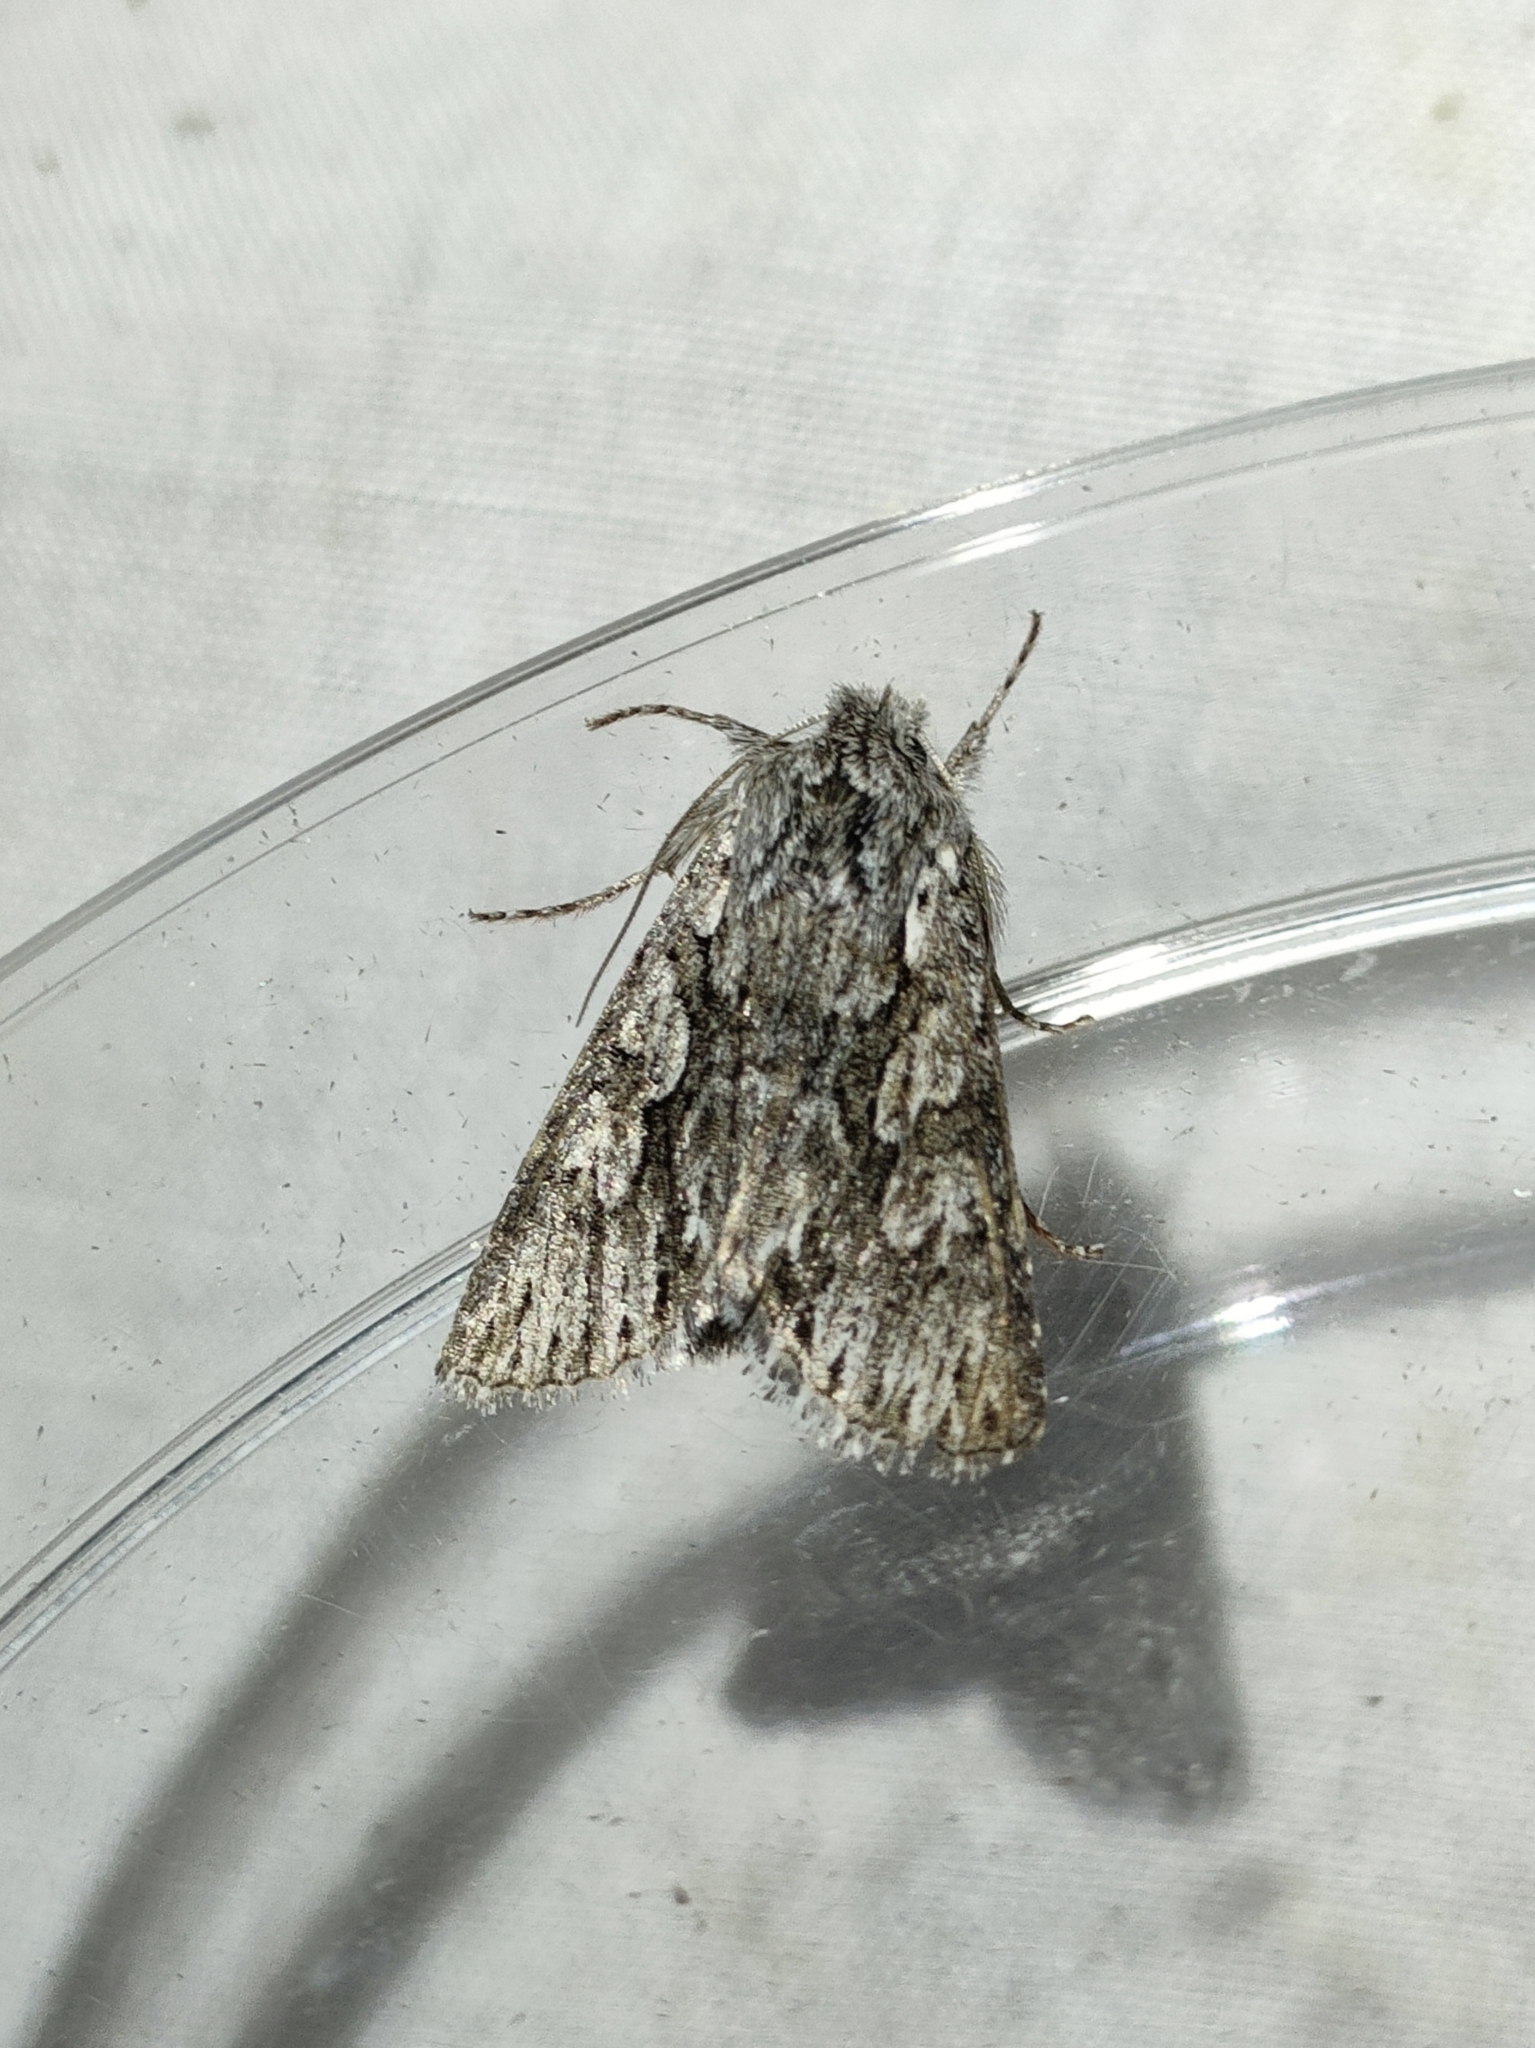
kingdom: Animalia
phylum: Arthropoda
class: Insecta
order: Lepidoptera
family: Noctuidae
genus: Xylocampa
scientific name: Xylocampa areola
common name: Early grey
